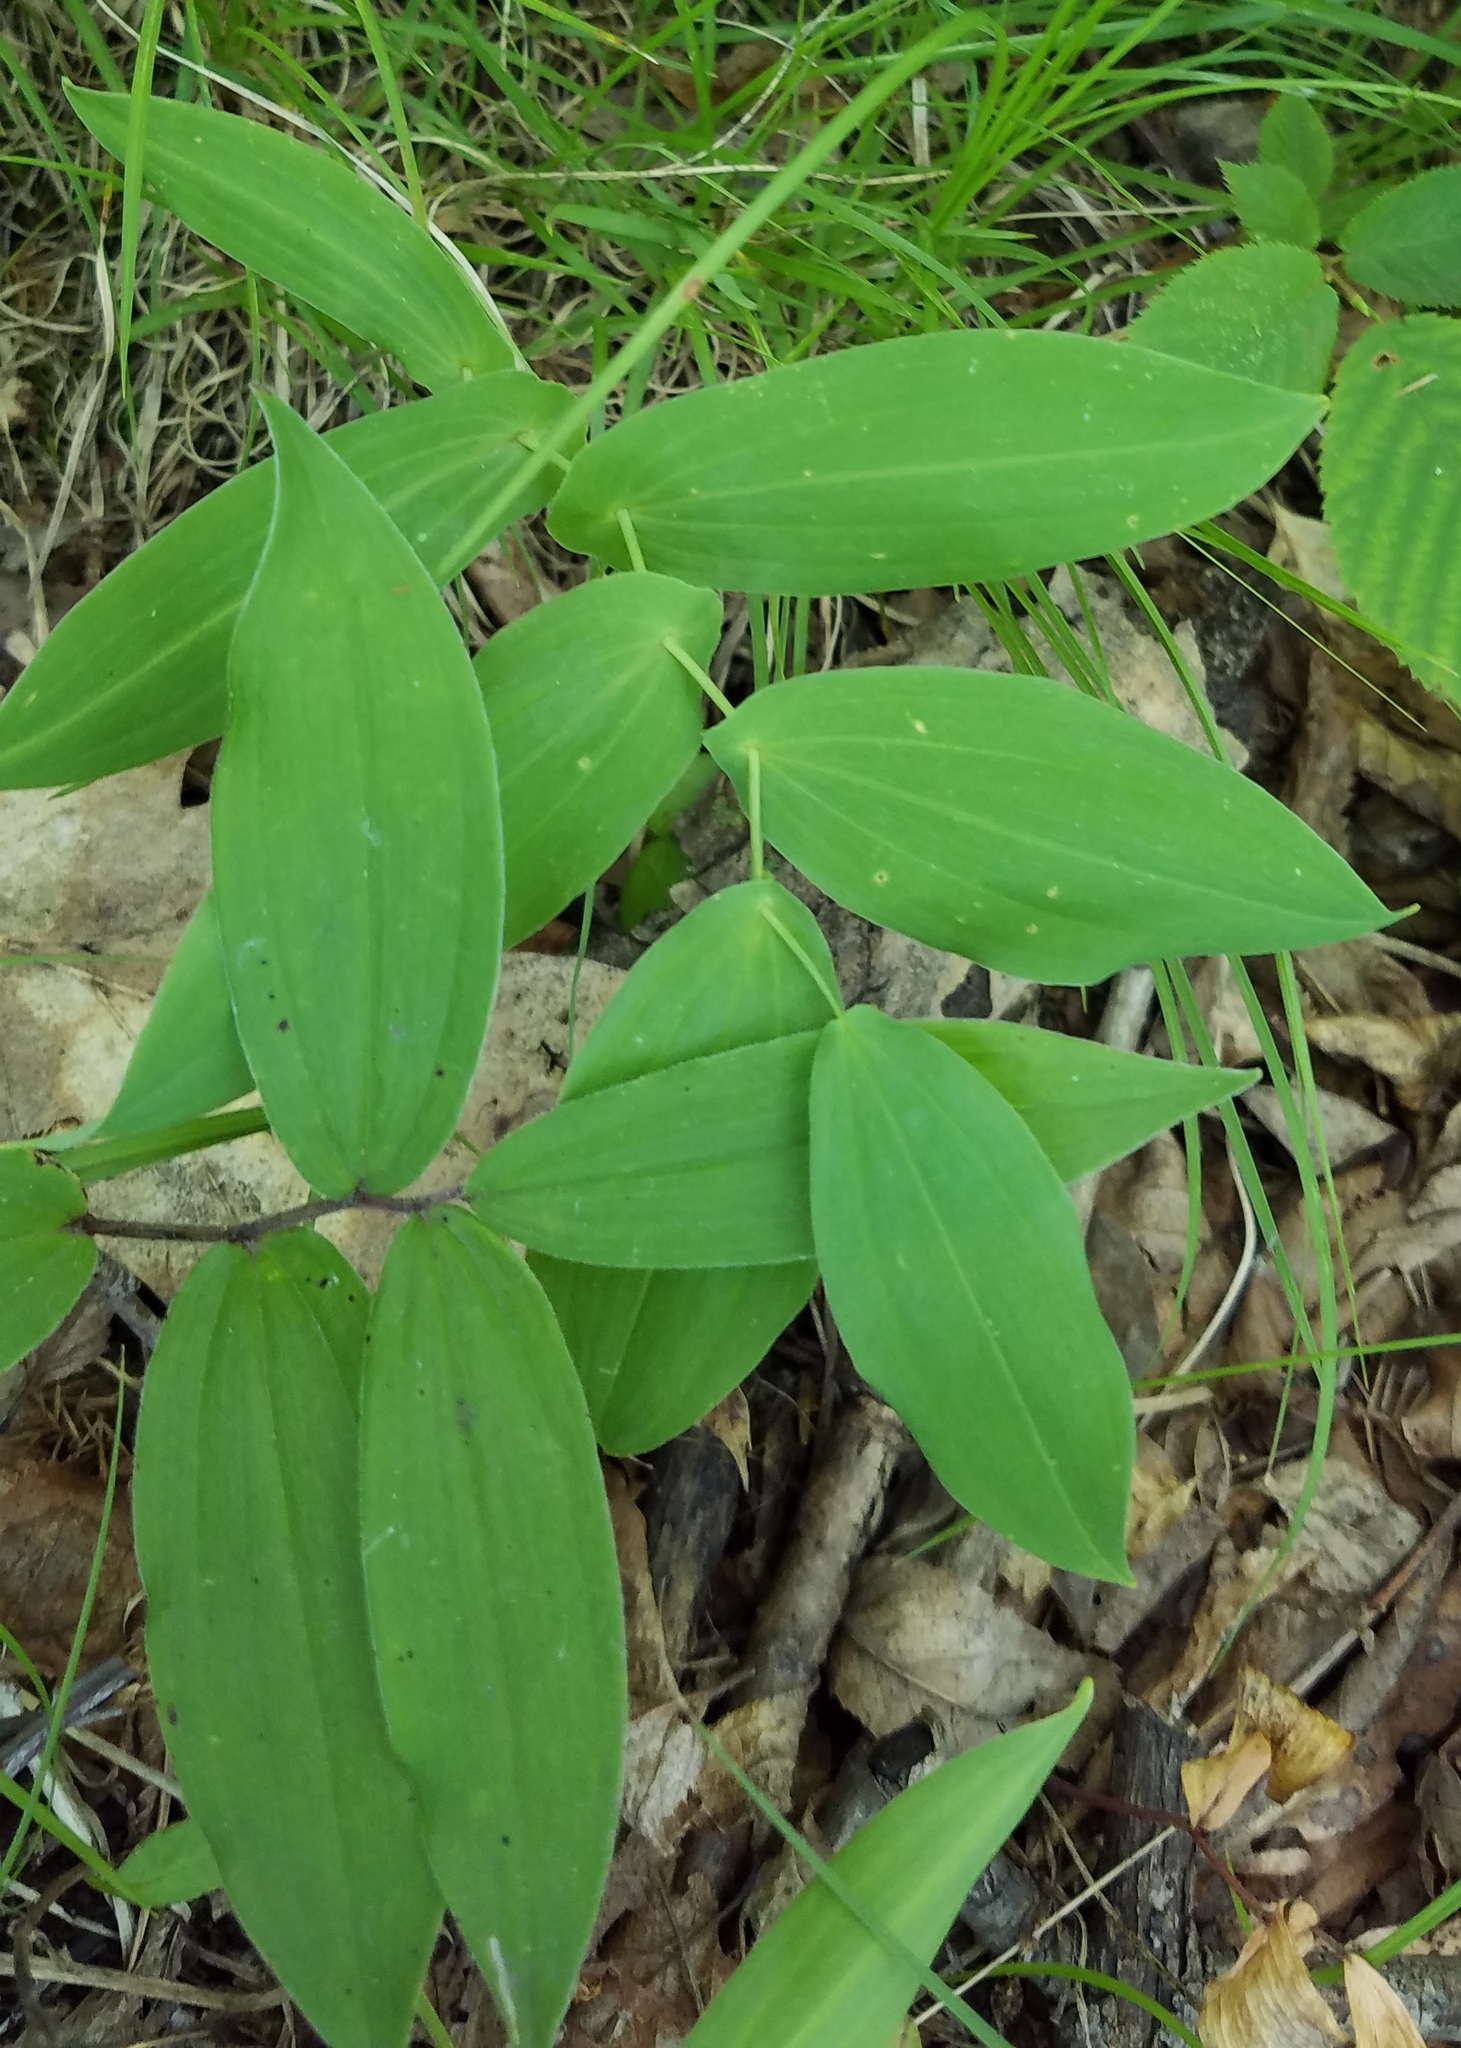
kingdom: Plantae
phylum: Tracheophyta
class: Liliopsida
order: Liliales
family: Colchicaceae
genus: Uvularia
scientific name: Uvularia grandiflora
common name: Bellwort
